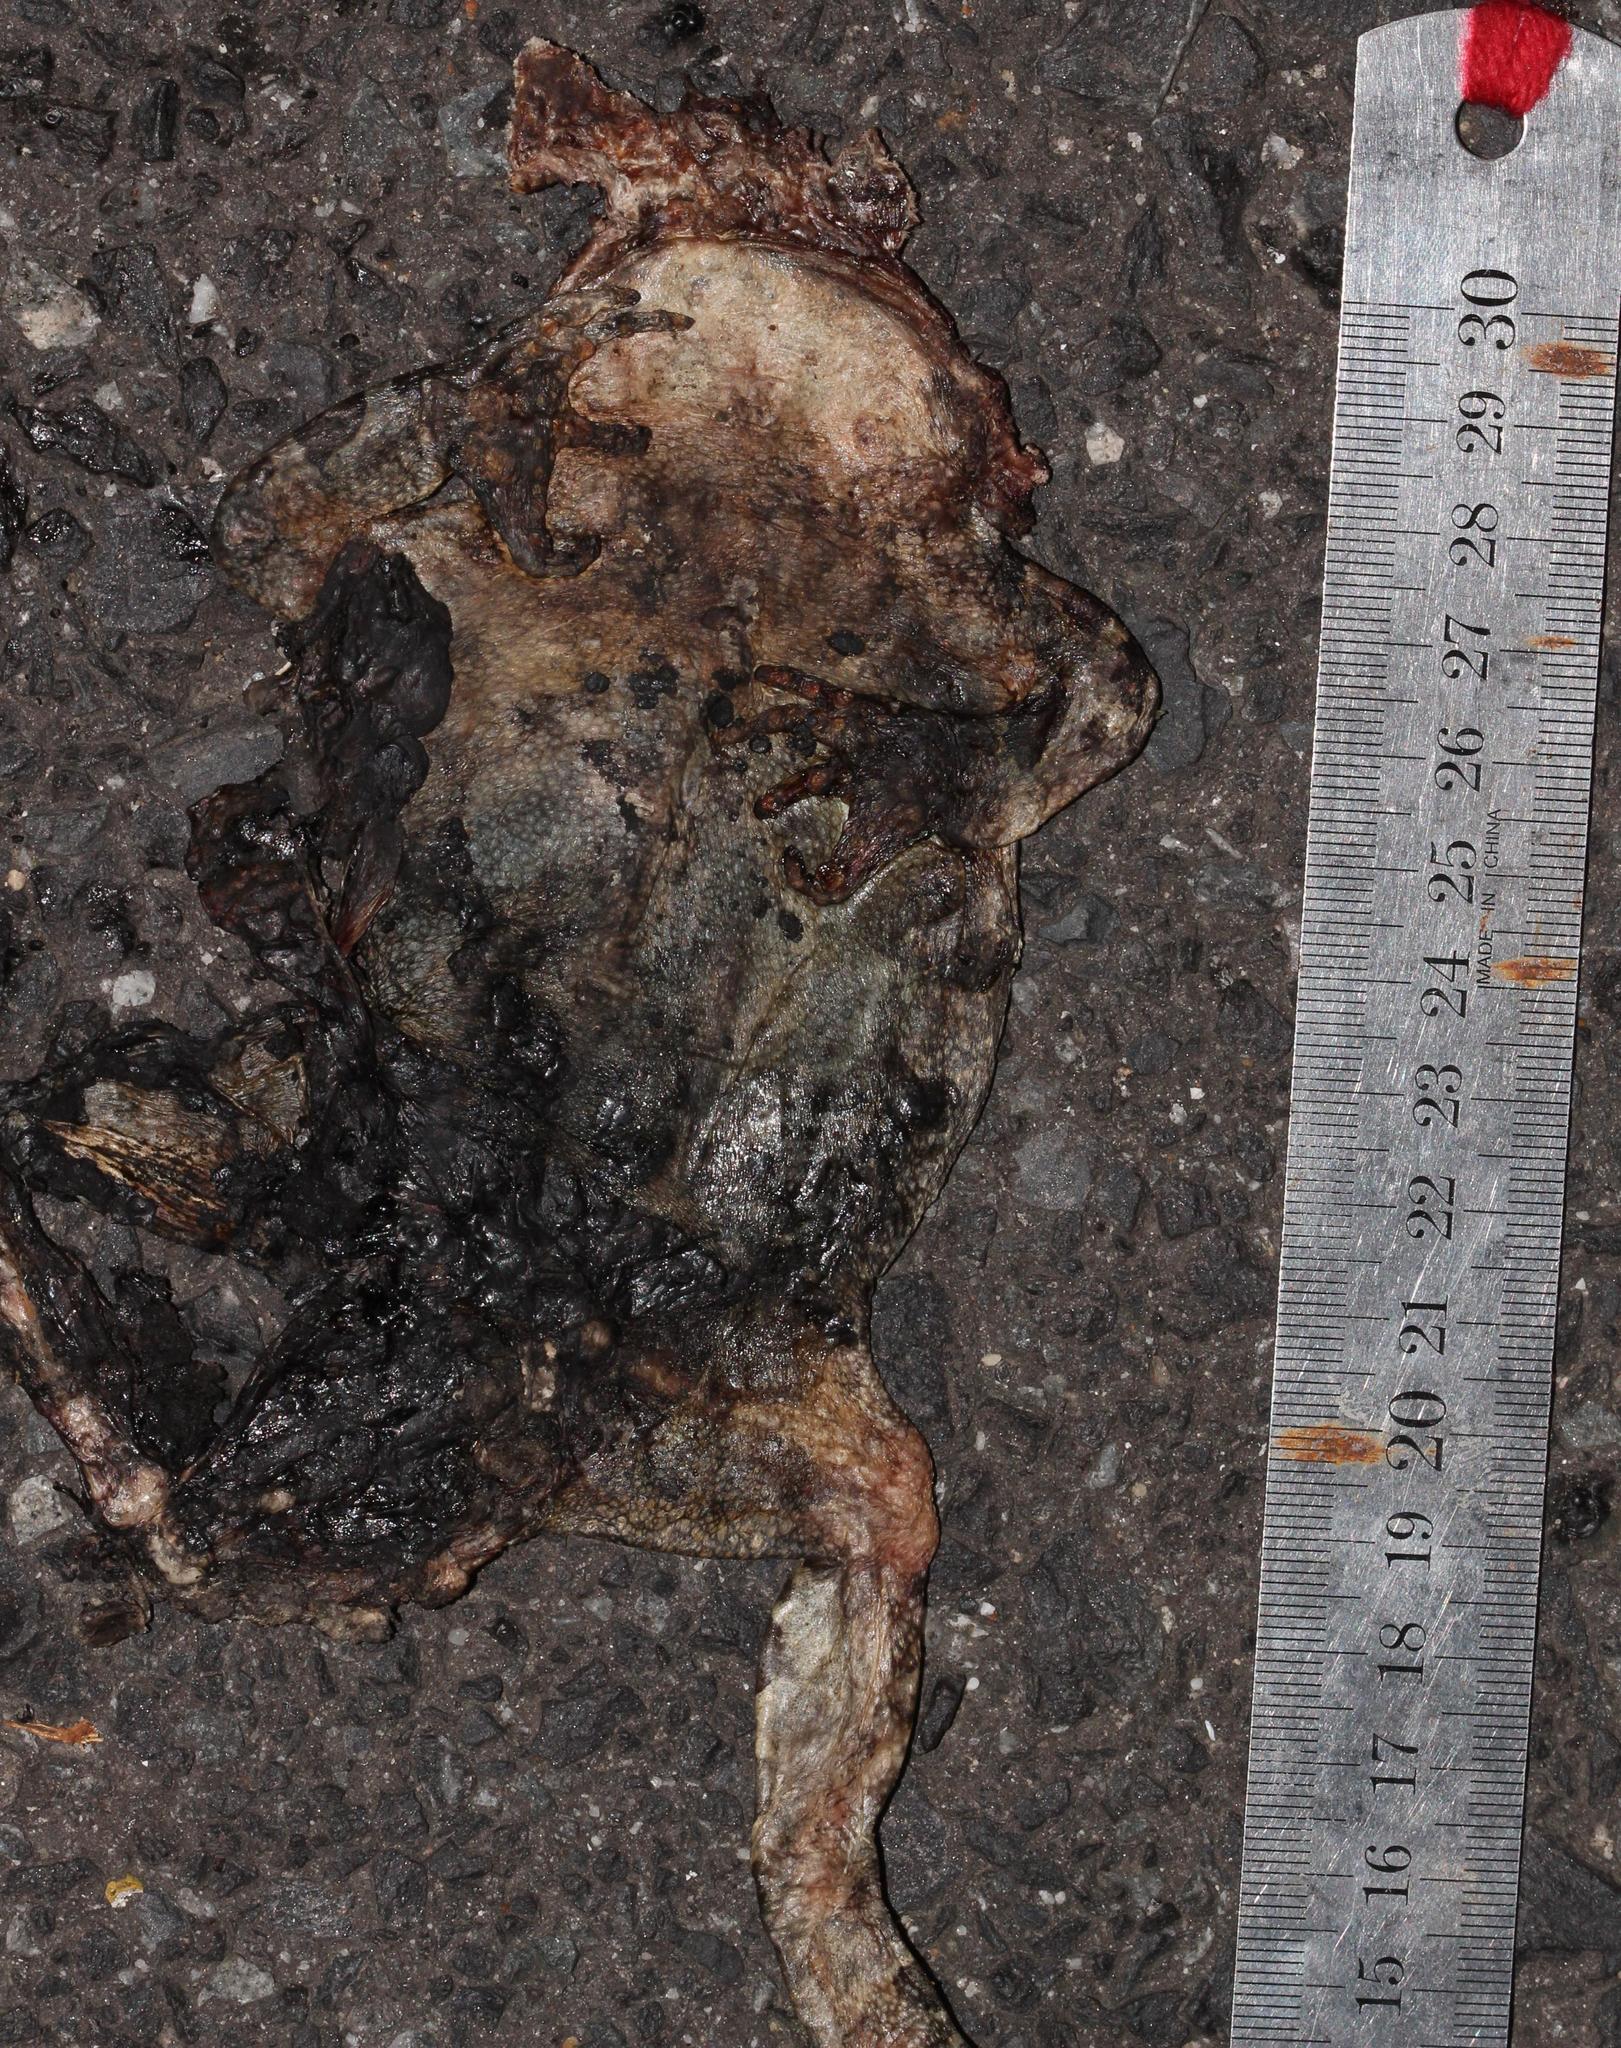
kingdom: Animalia
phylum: Chordata
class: Amphibia
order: Anura
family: Bufonidae
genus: Sclerophrys
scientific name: Sclerophrys pantherina
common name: Panther toad
